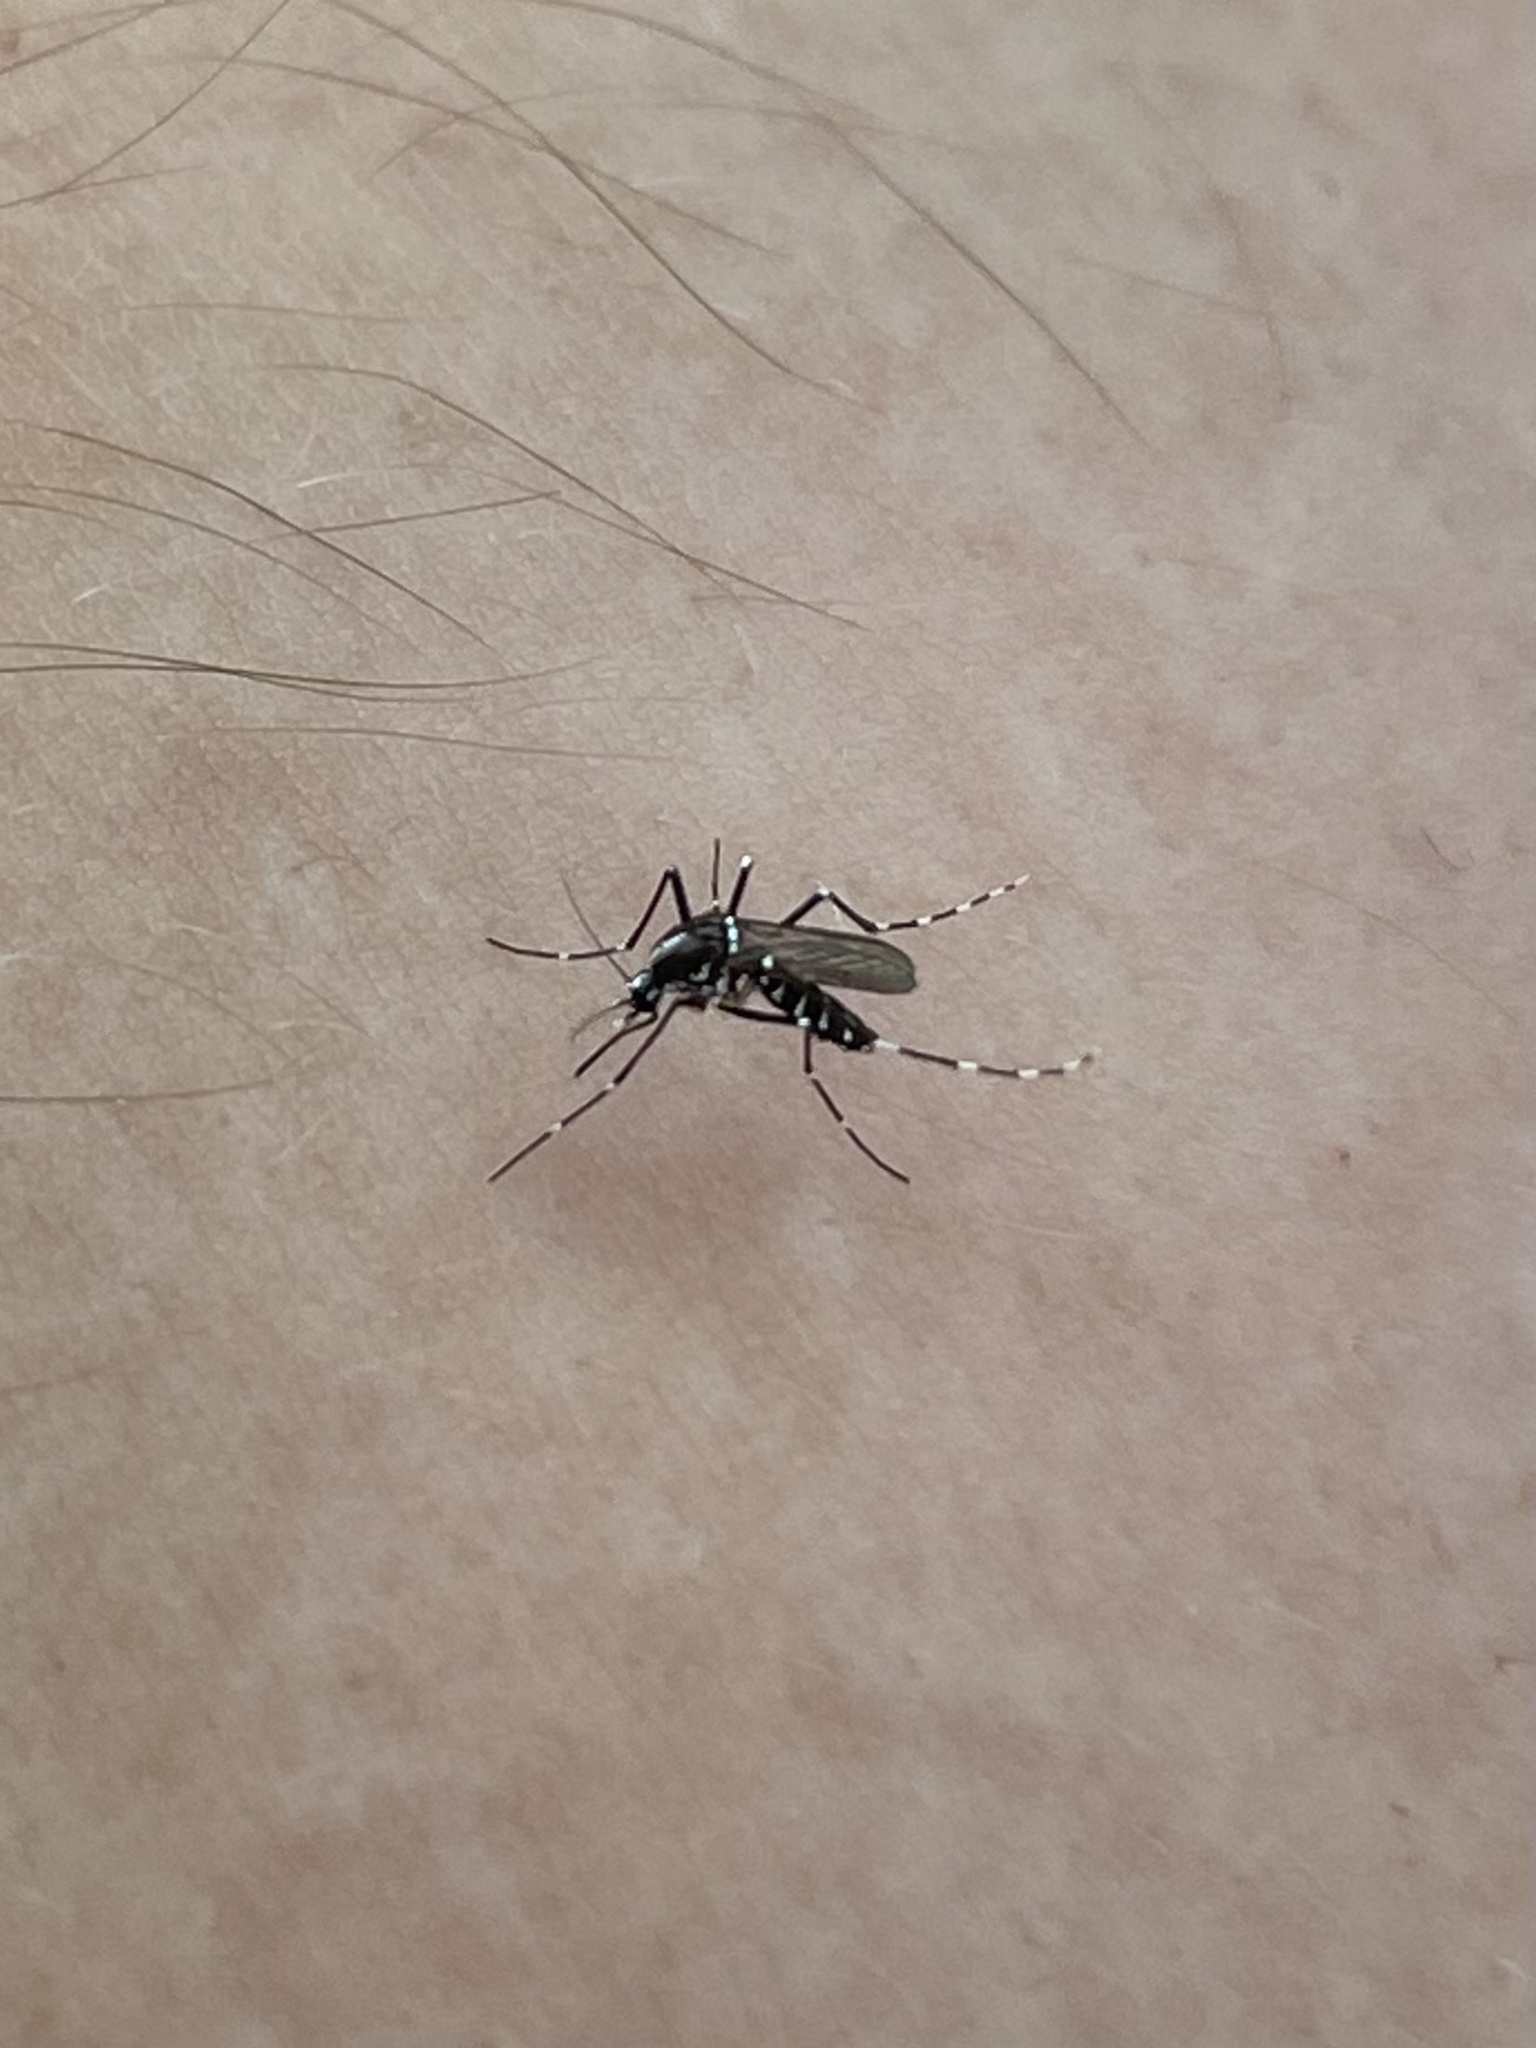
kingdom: Animalia
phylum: Arthropoda
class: Insecta
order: Diptera
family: Culicidae
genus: Aedes
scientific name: Aedes albopictus
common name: Tiger mosquito
